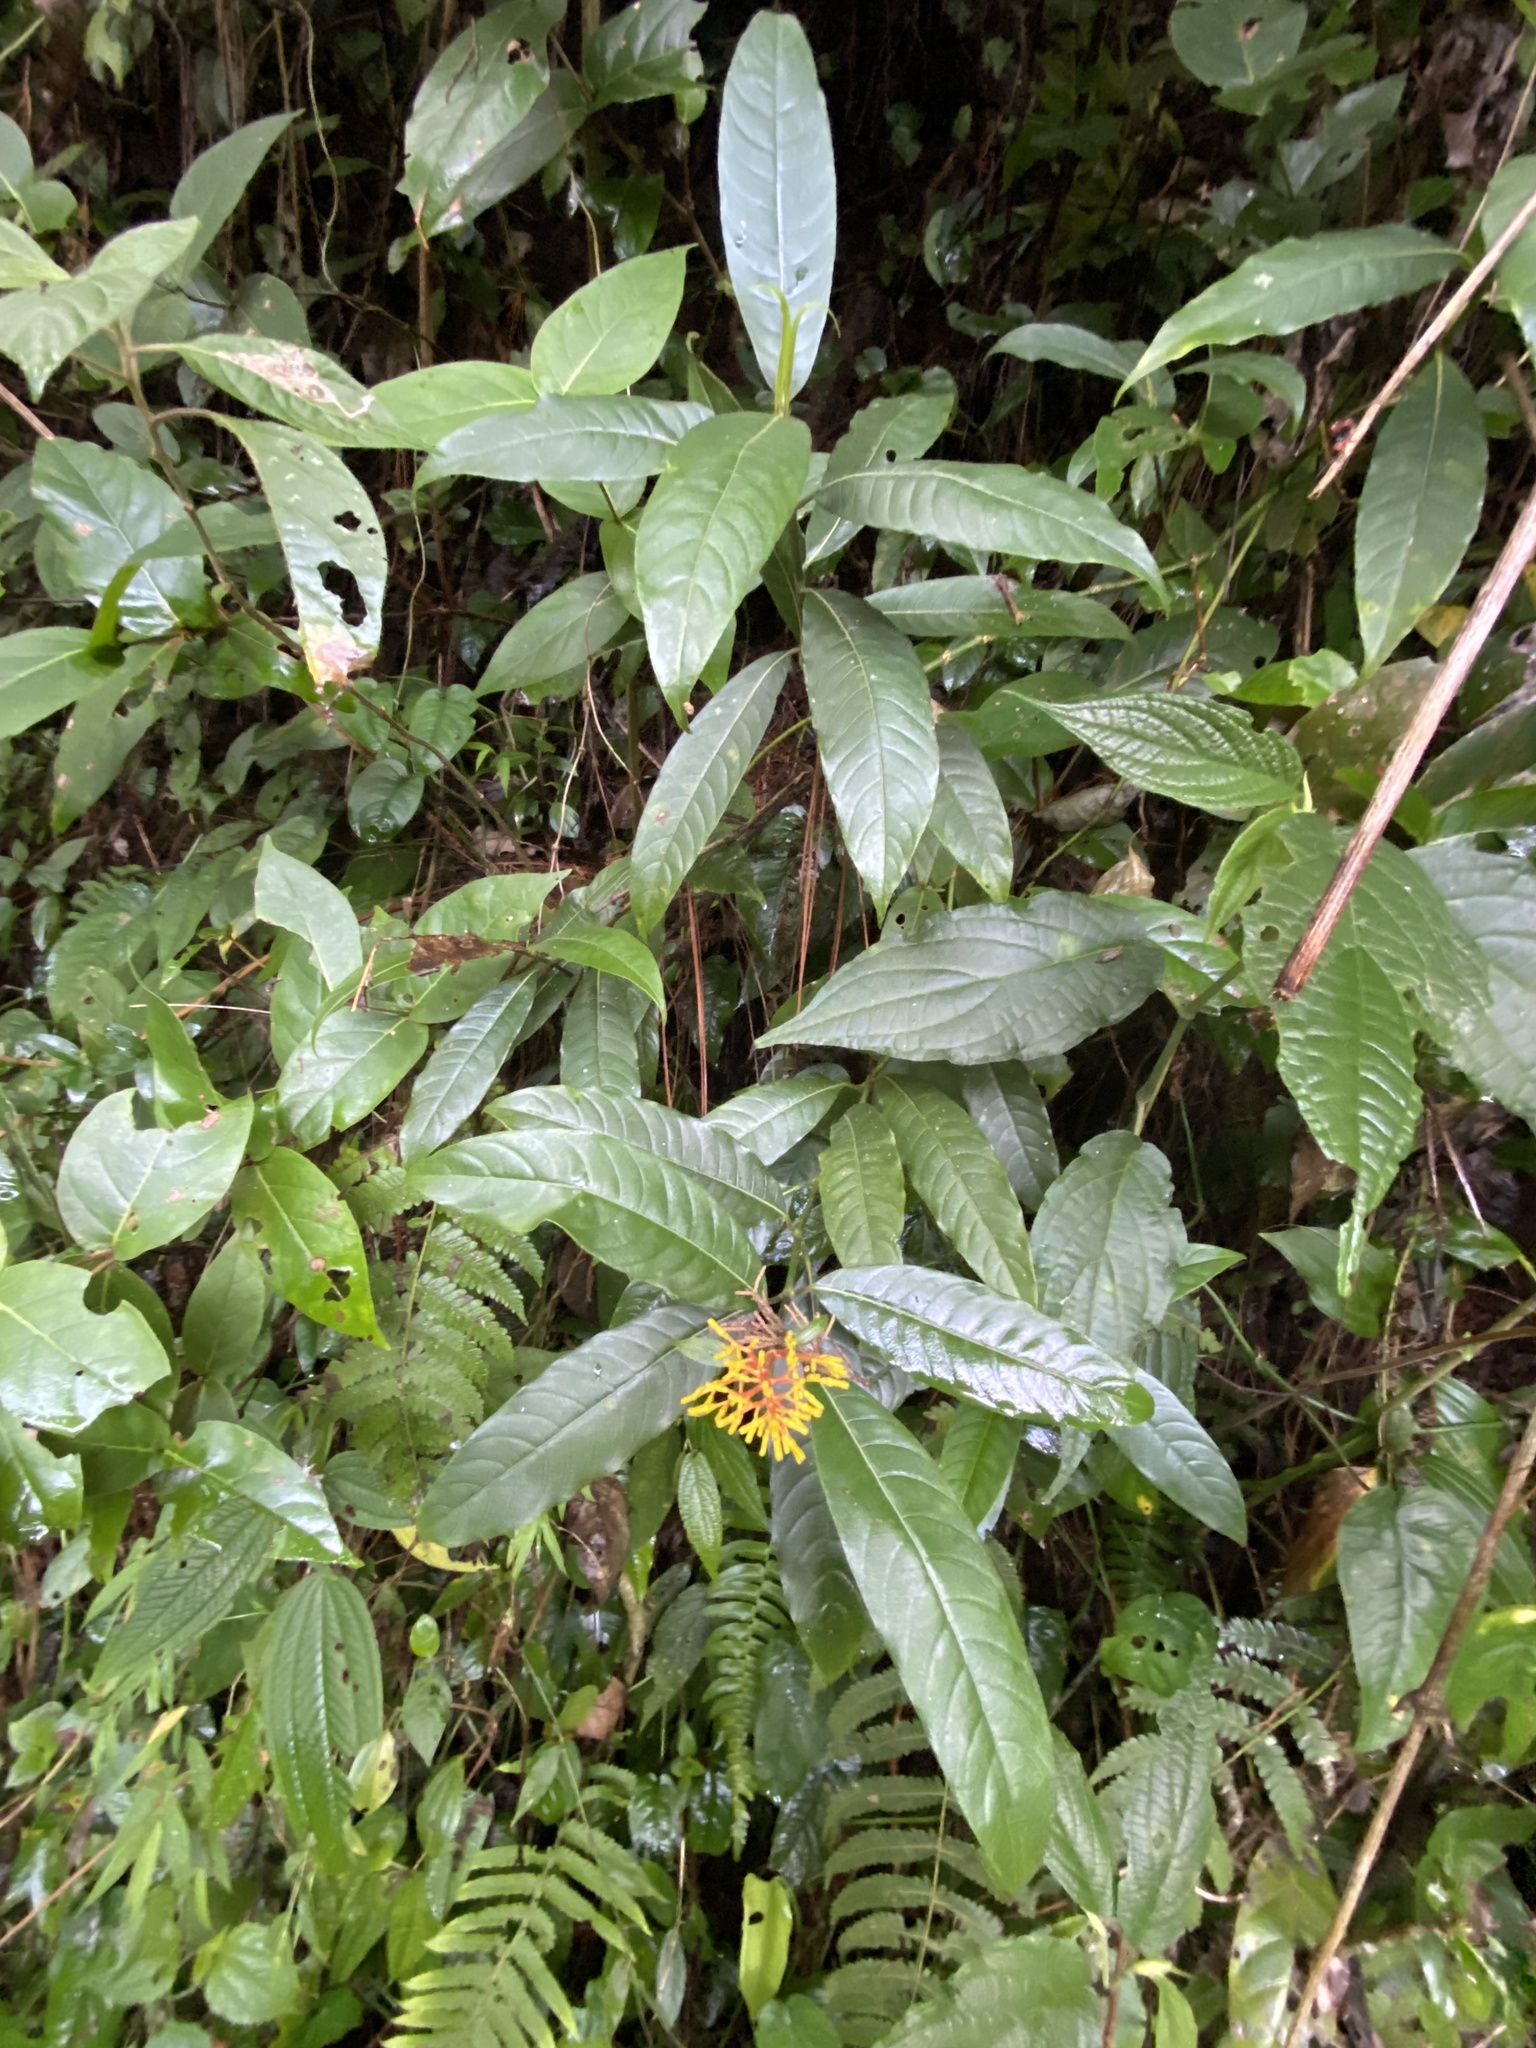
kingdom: Plantae
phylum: Tracheophyta
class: Magnoliopsida
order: Gentianales
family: Rubiaceae
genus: Palicourea
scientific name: Palicourea padifolia
